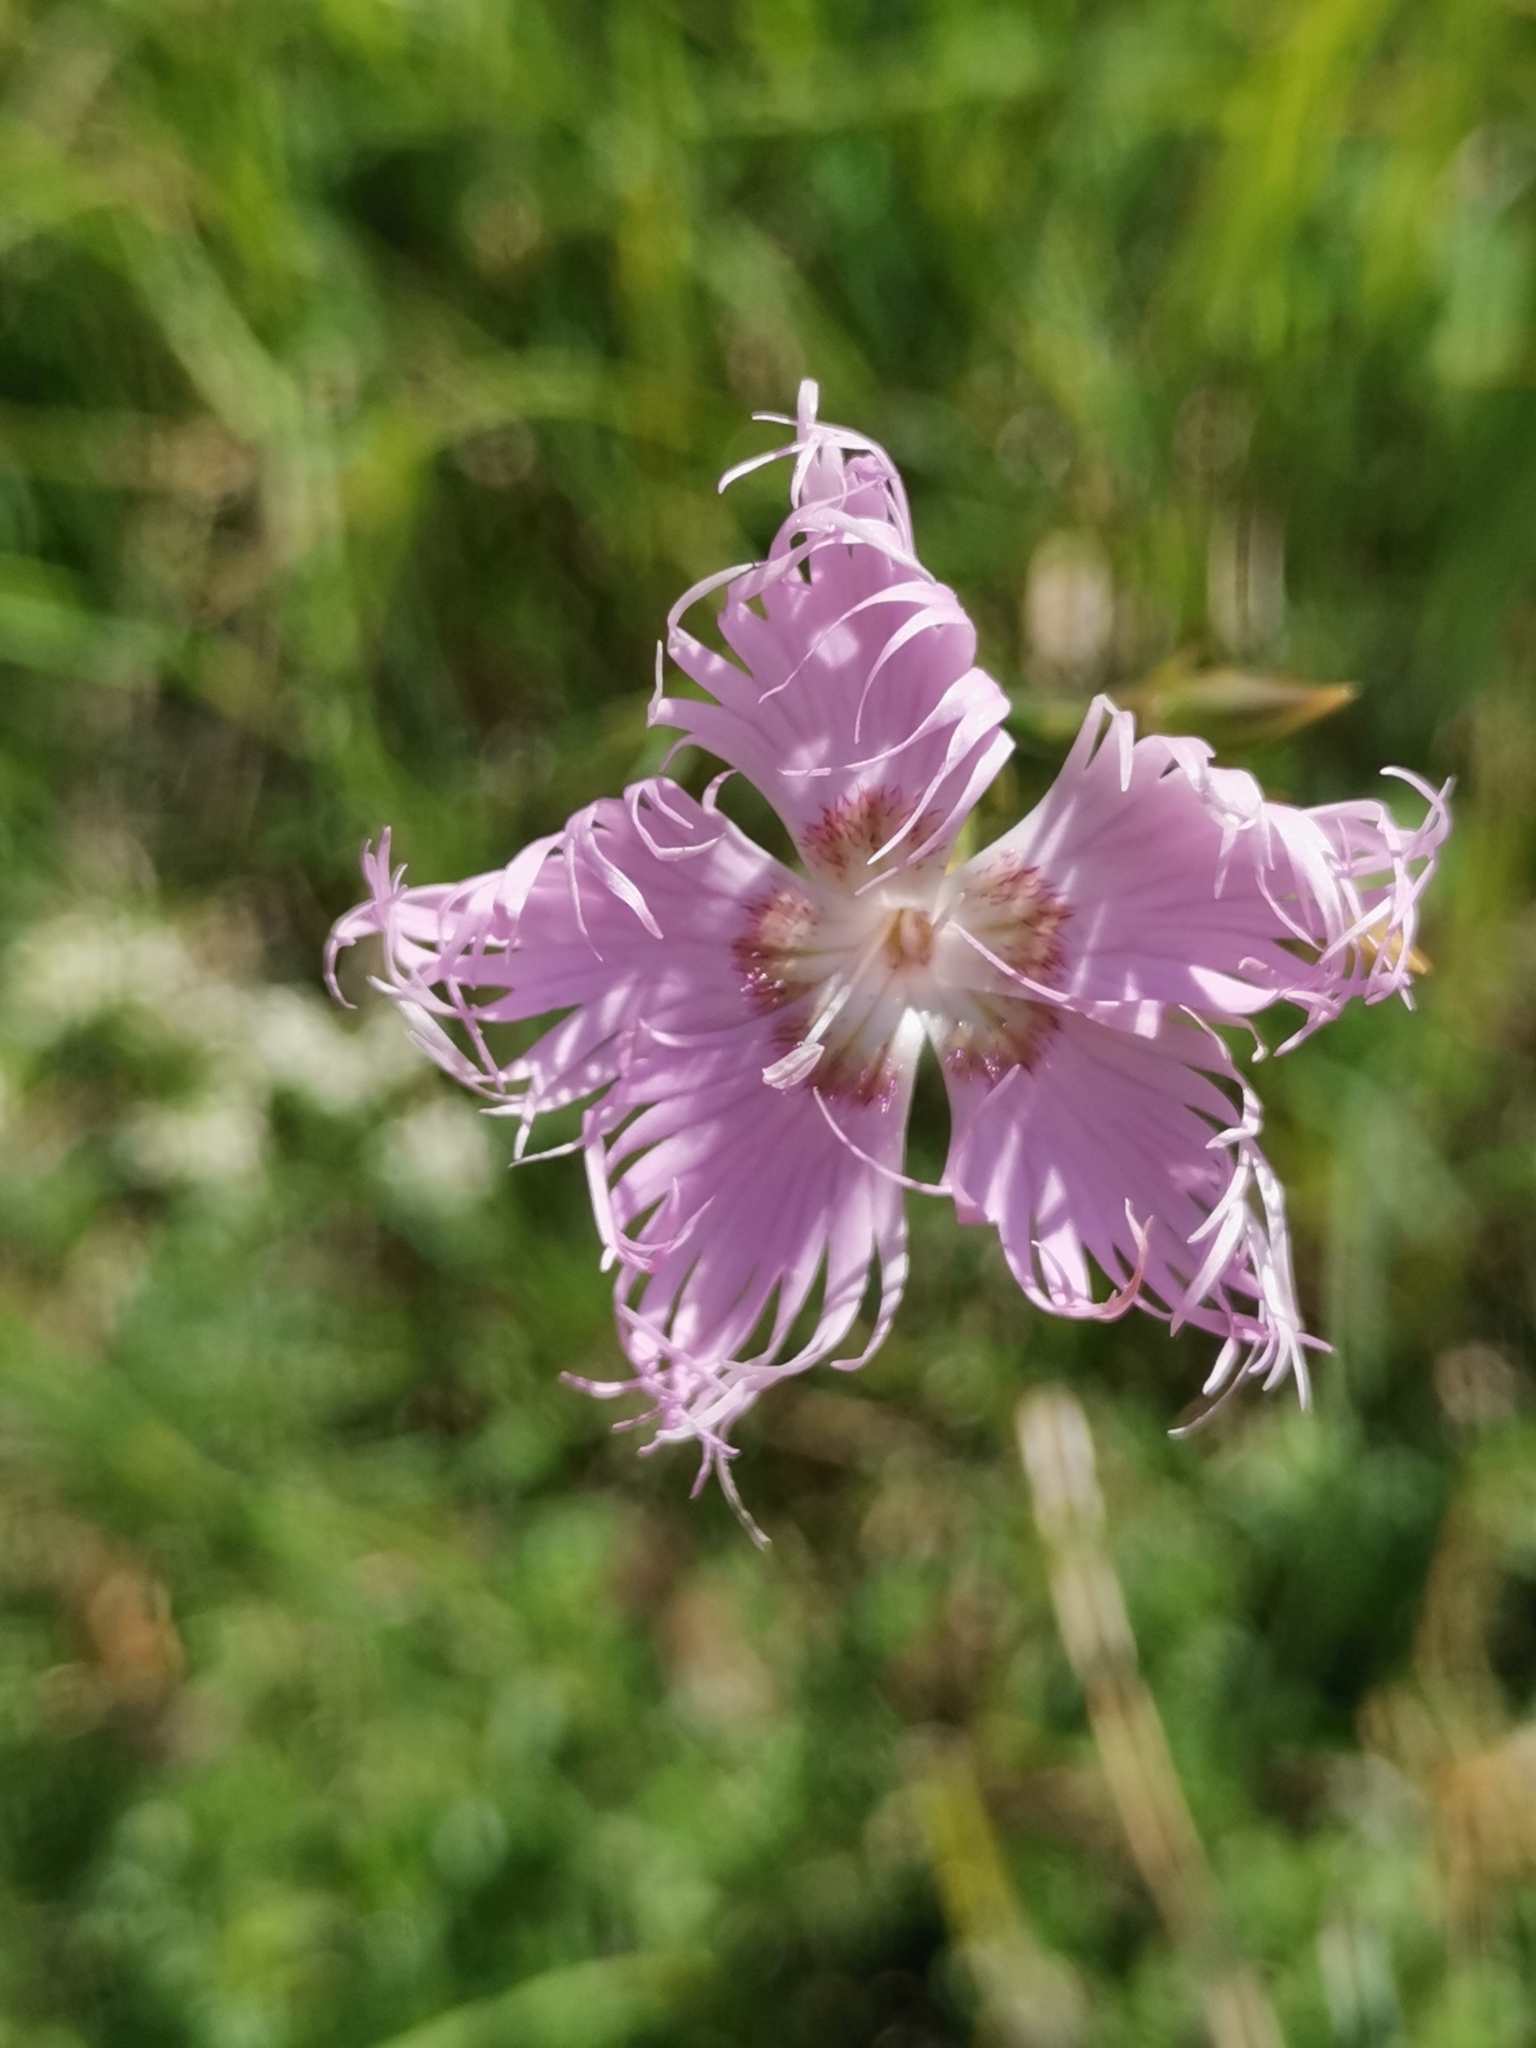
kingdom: Plantae
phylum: Tracheophyta
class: Magnoliopsida
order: Caryophyllales
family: Caryophyllaceae
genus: Dianthus
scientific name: Dianthus hyssopifolius
